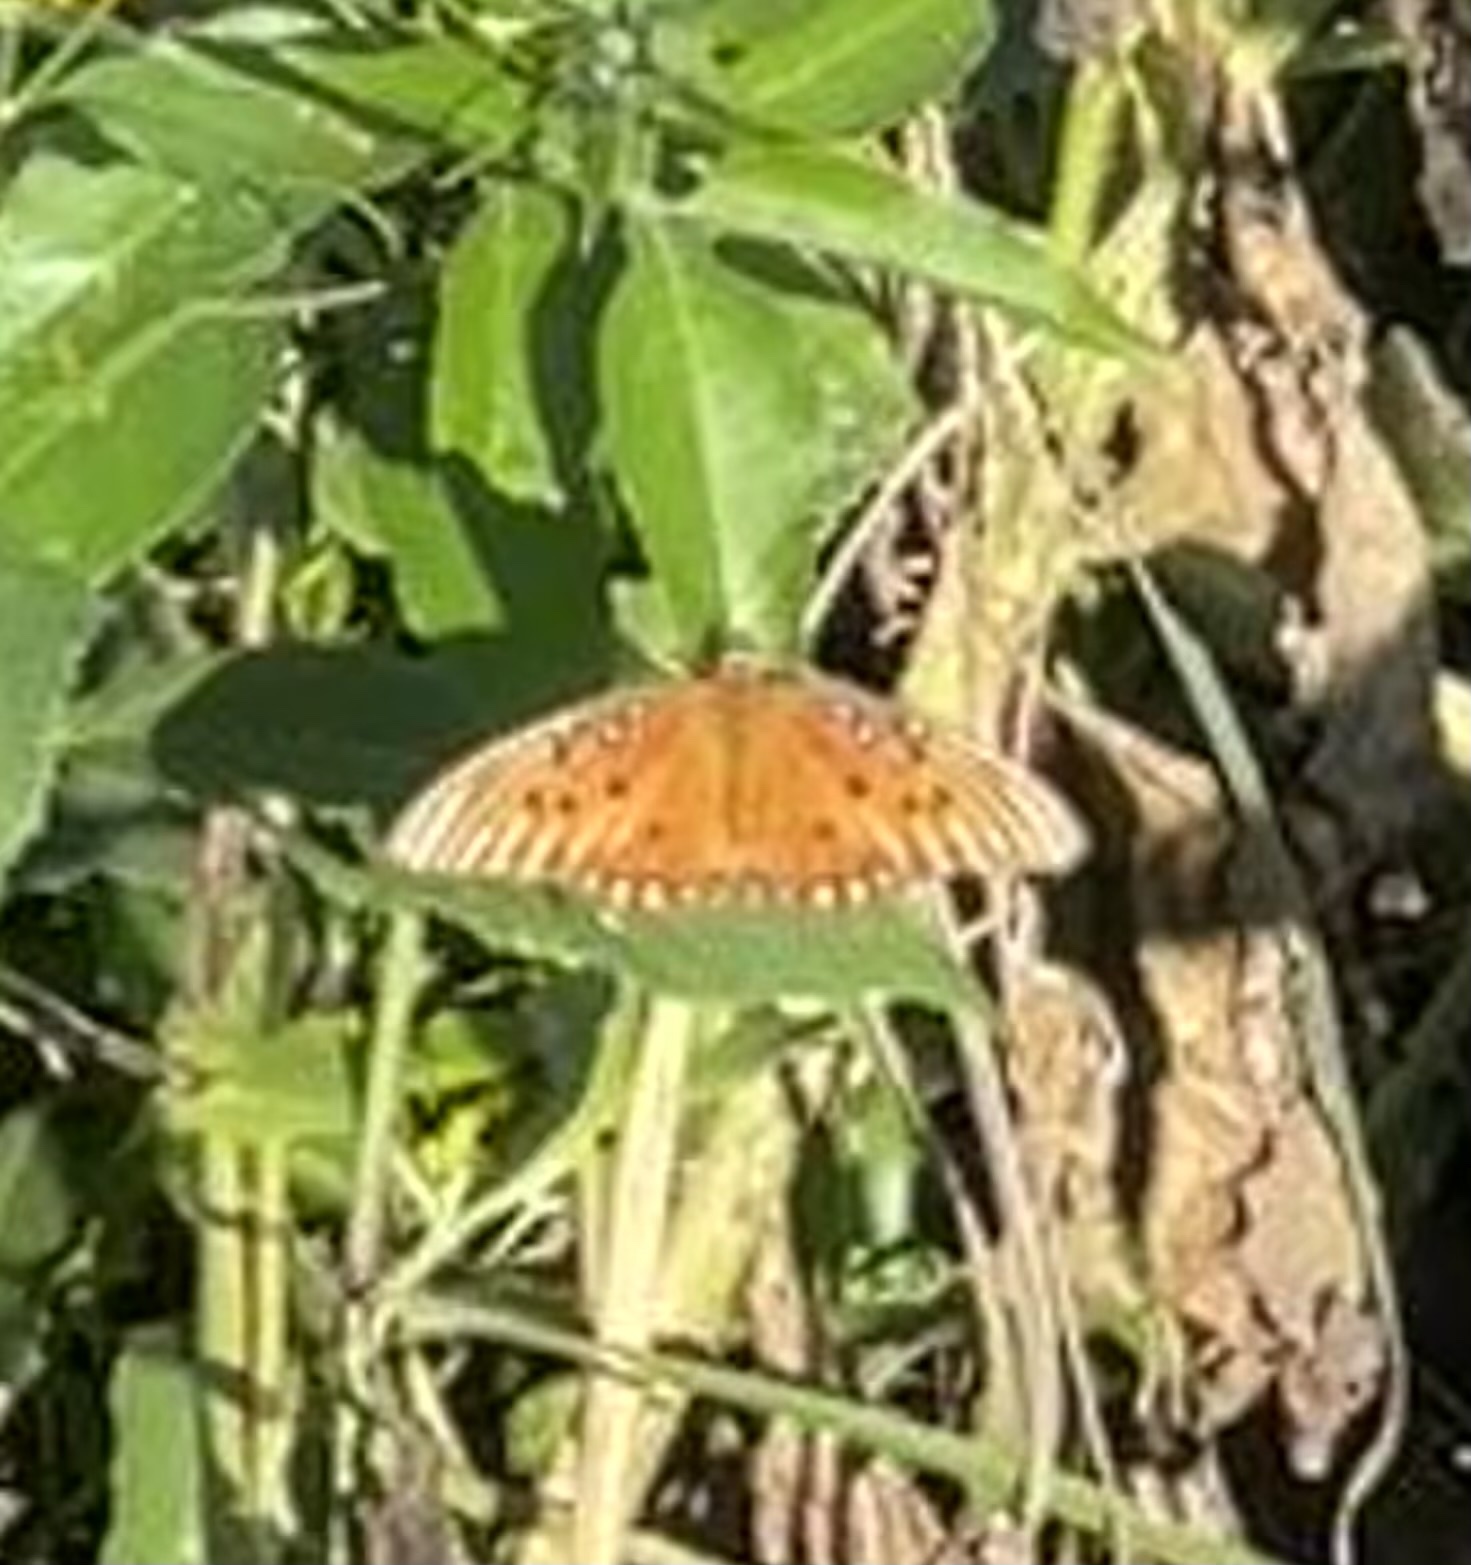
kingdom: Animalia
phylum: Arthropoda
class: Insecta
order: Lepidoptera
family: Nymphalidae
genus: Dione
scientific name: Dione vanillae
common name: Gulf fritillary
